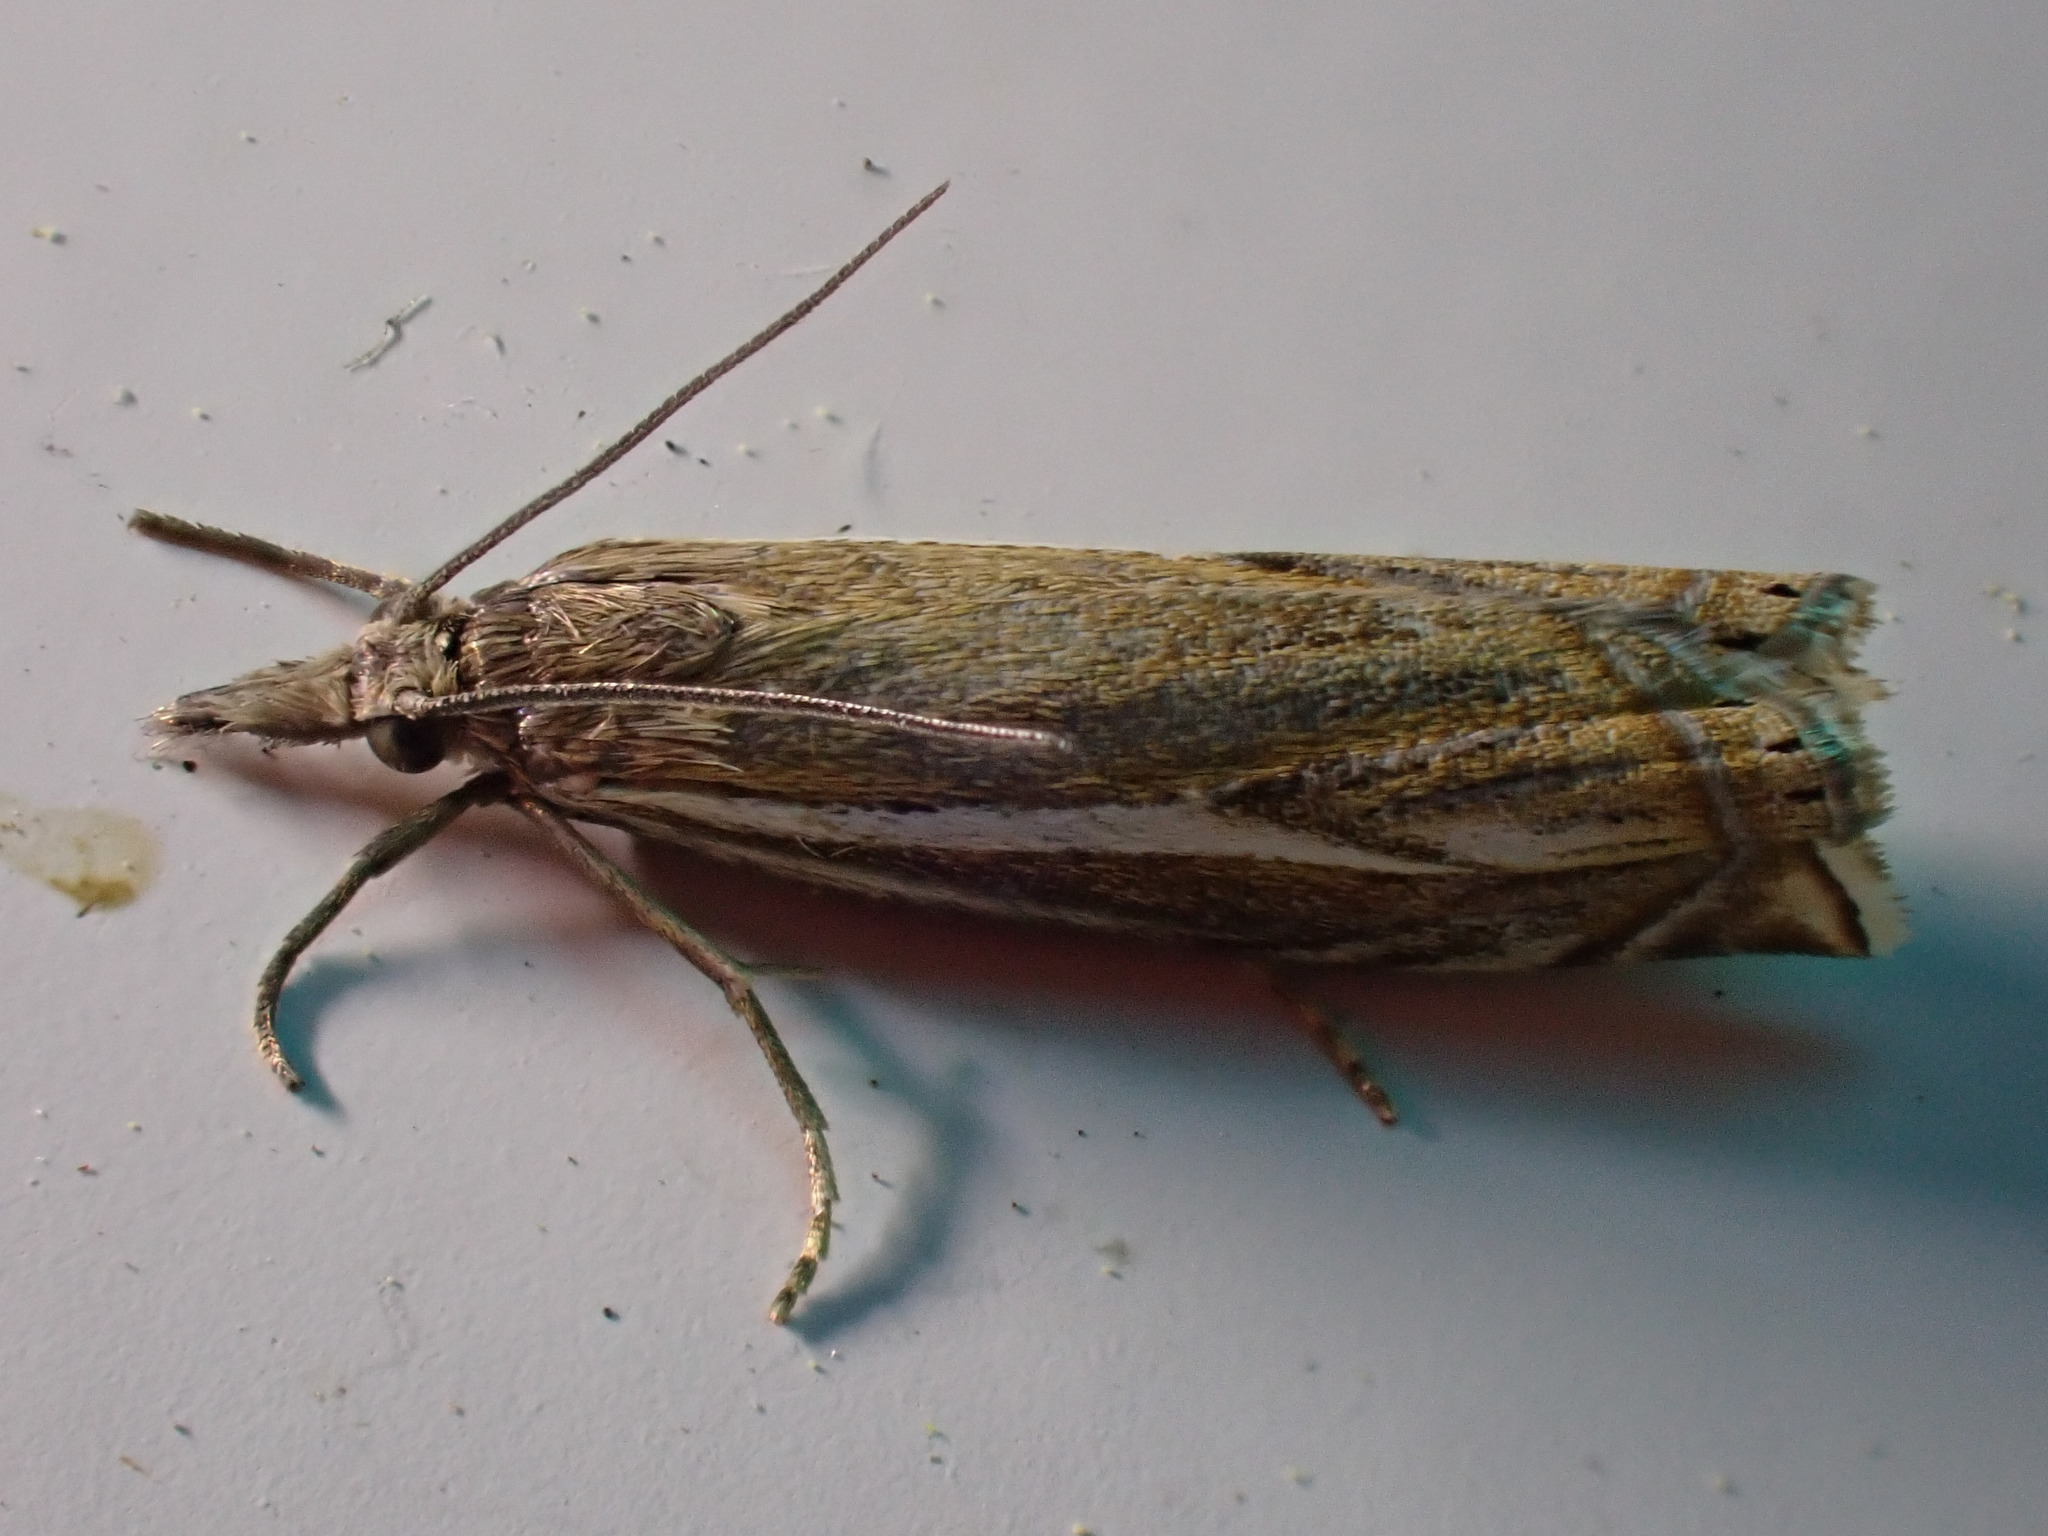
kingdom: Animalia
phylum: Arthropoda
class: Insecta
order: Lepidoptera
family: Crambidae
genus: Crambus
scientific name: Crambus nemorella
